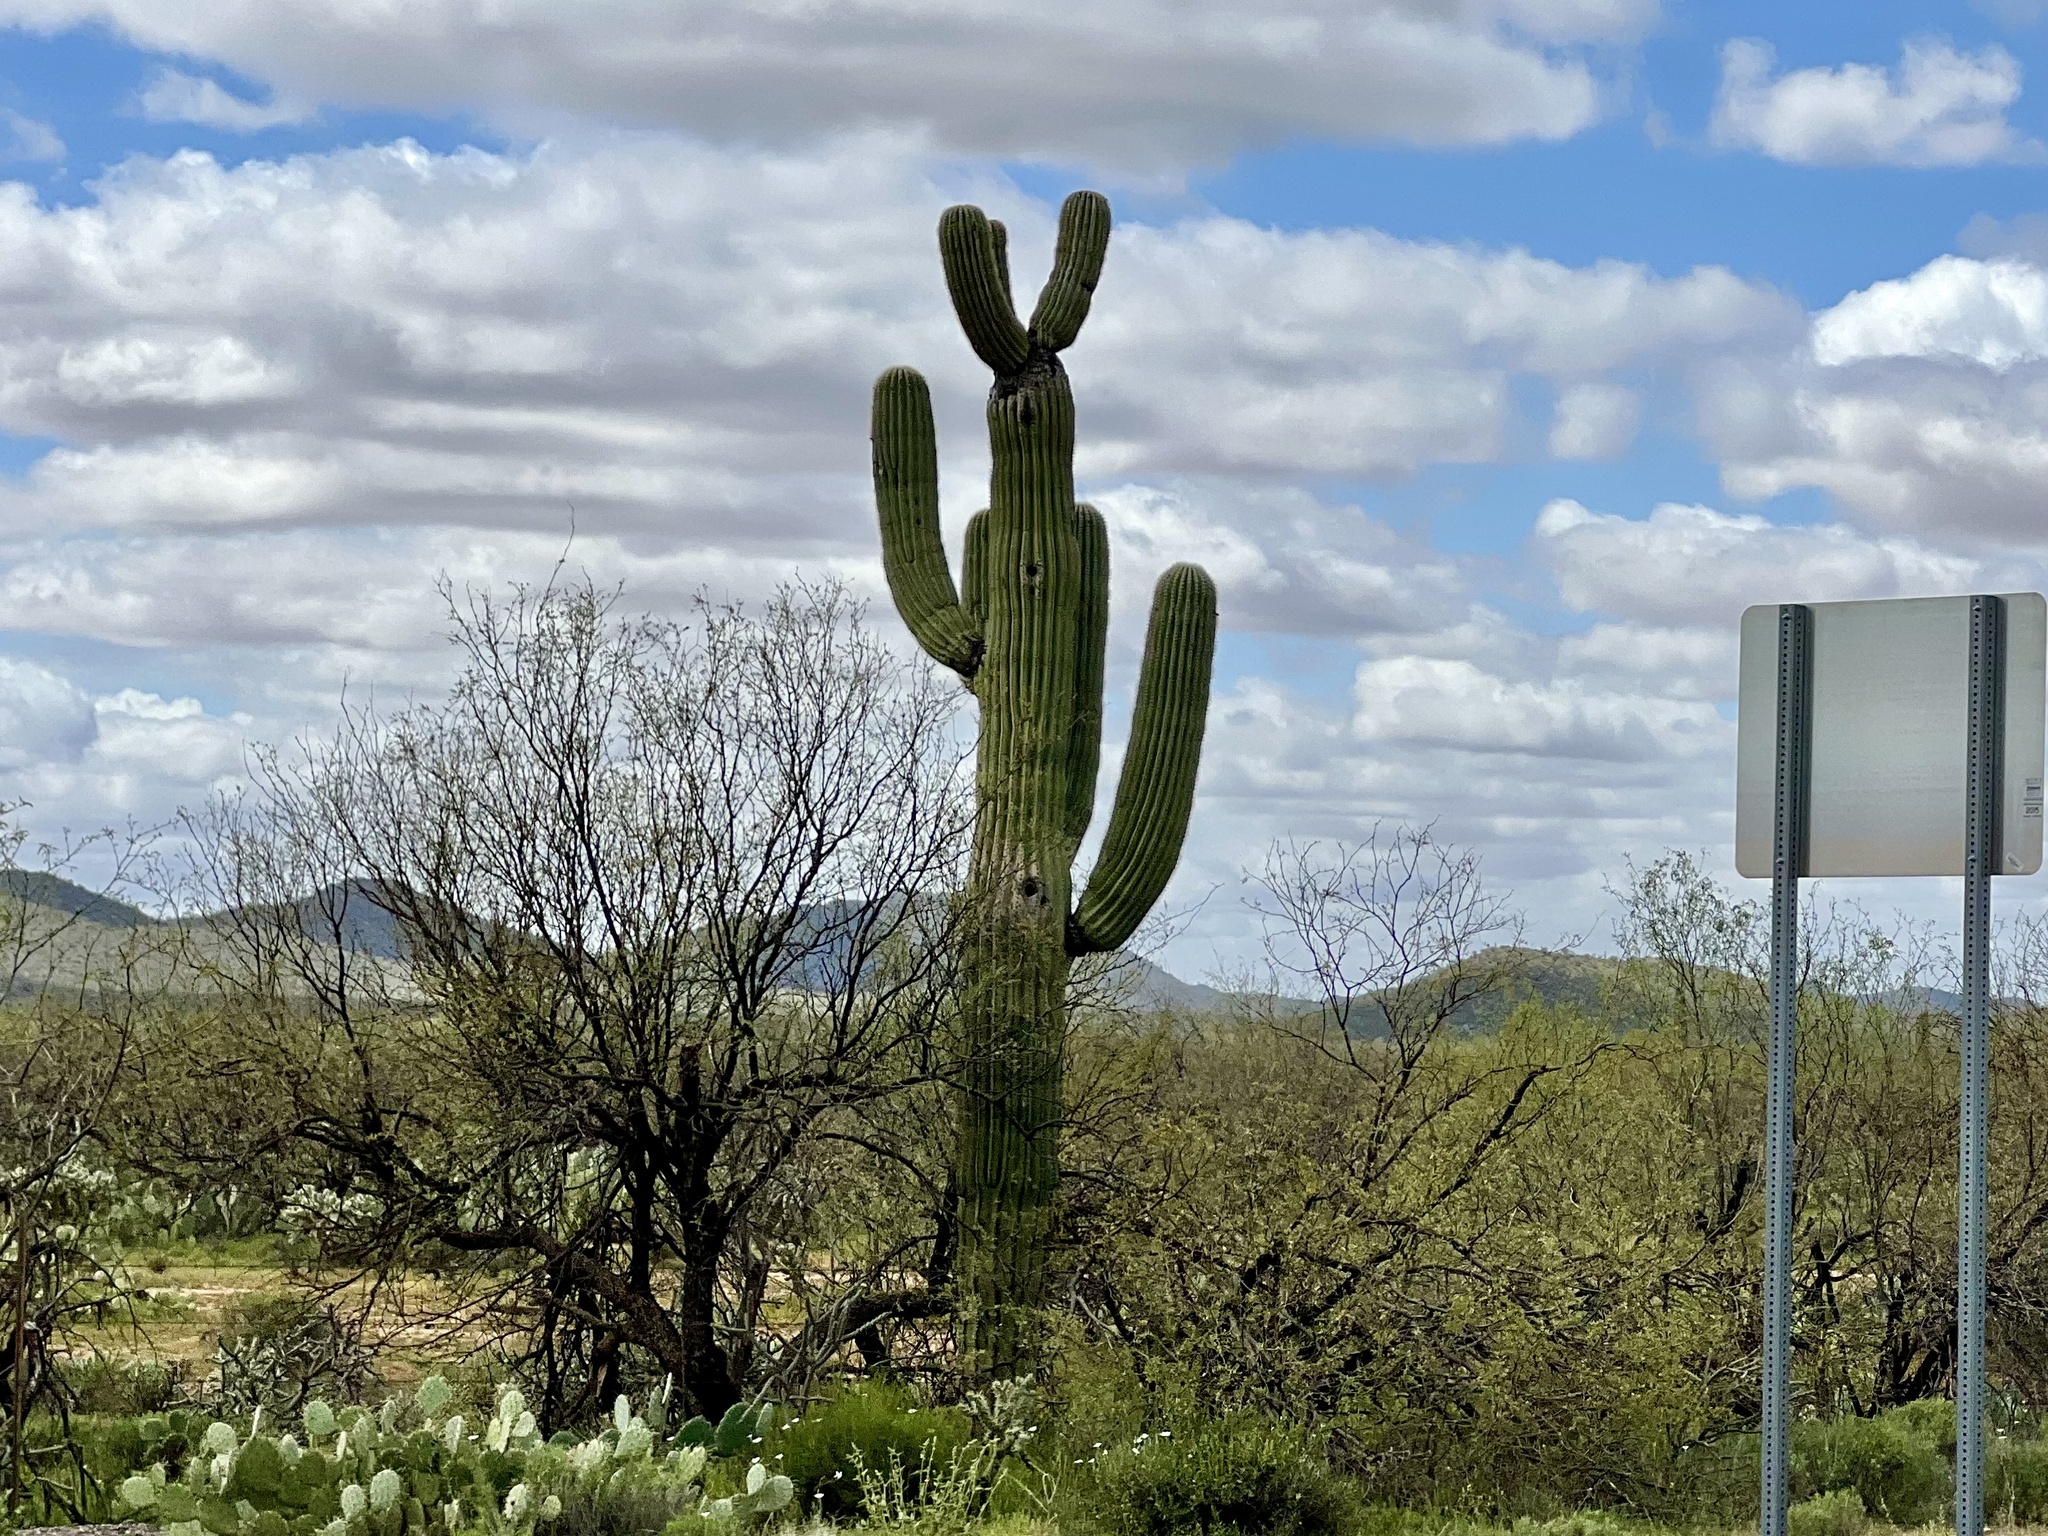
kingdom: Plantae
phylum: Tracheophyta
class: Magnoliopsida
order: Caryophyllales
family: Cactaceae
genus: Carnegiea
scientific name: Carnegiea gigantea
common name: Saguaro
